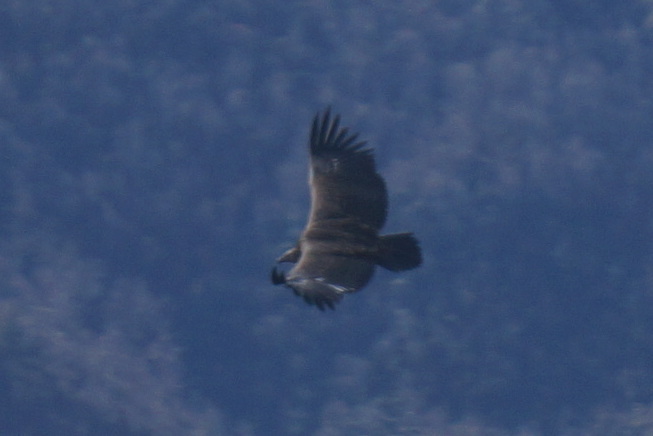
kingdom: Animalia
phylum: Chordata
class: Aves
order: Accipitriformes
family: Accipitridae
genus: Aegypius
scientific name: Aegypius monachus
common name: Cinereous vulture
